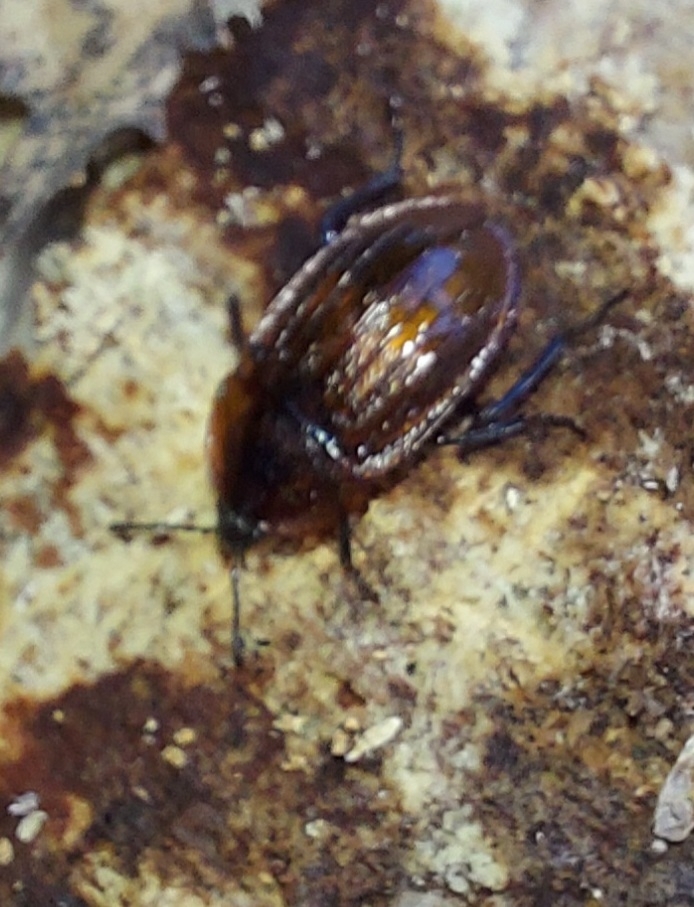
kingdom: Animalia
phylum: Arthropoda
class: Insecta
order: Coleoptera
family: Staphylinidae
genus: Silpha
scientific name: Silpha atrata
